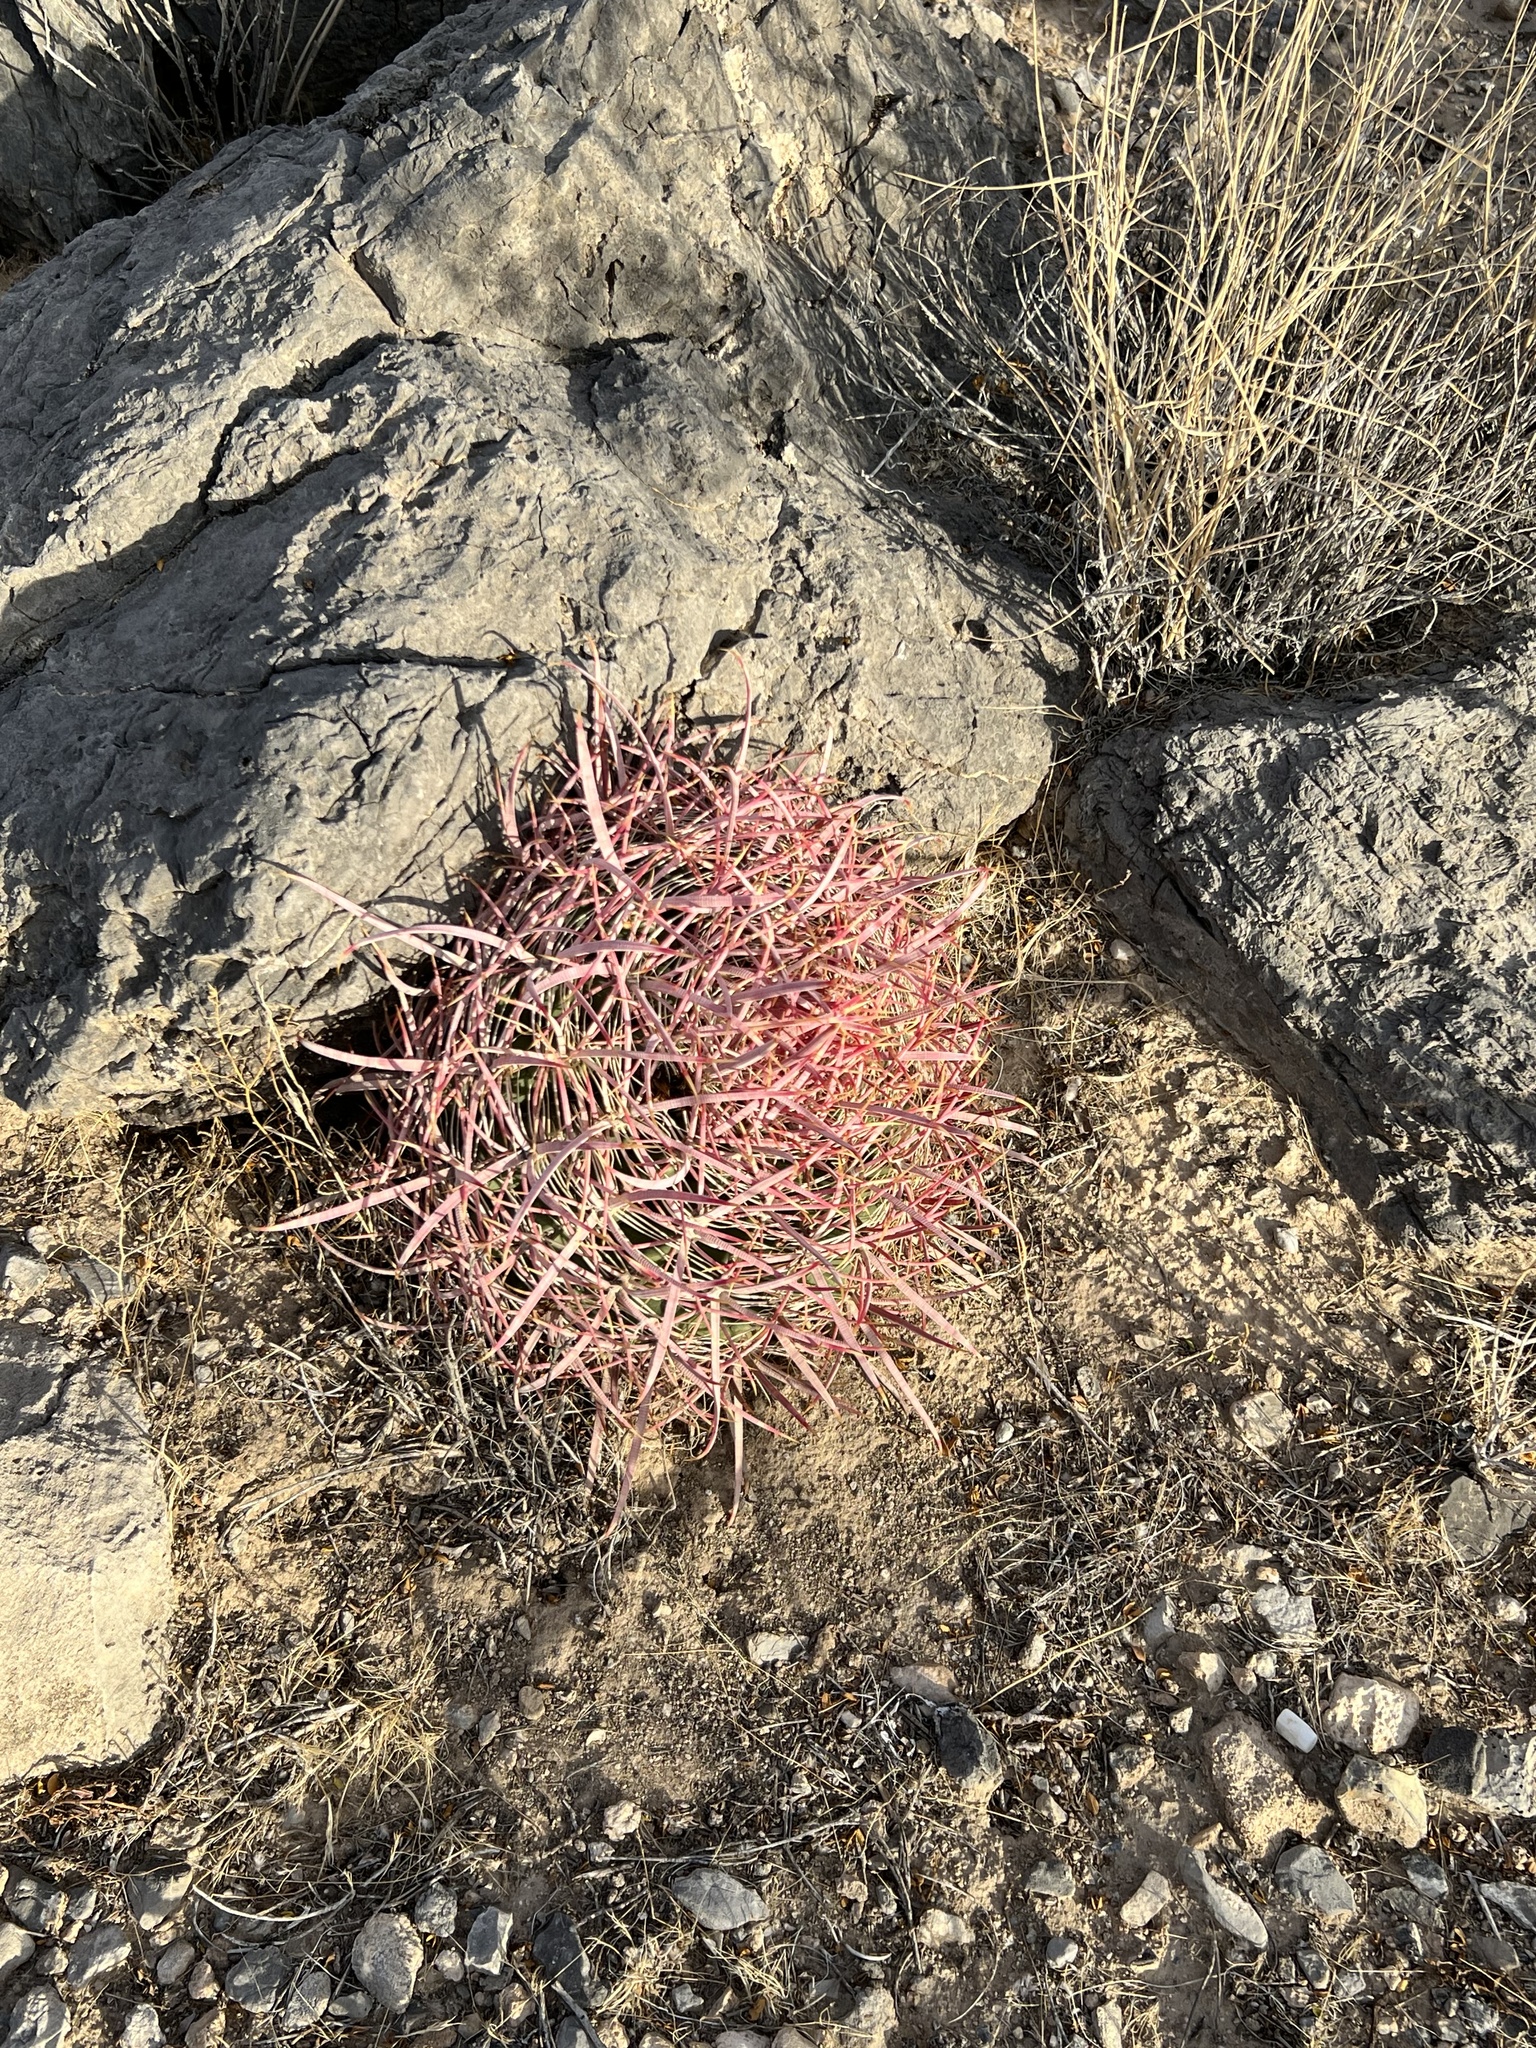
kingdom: Plantae
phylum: Tracheophyta
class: Magnoliopsida
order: Caryophyllales
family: Cactaceae
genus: Ferocactus
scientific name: Ferocactus cylindraceus
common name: California barrel cactus
